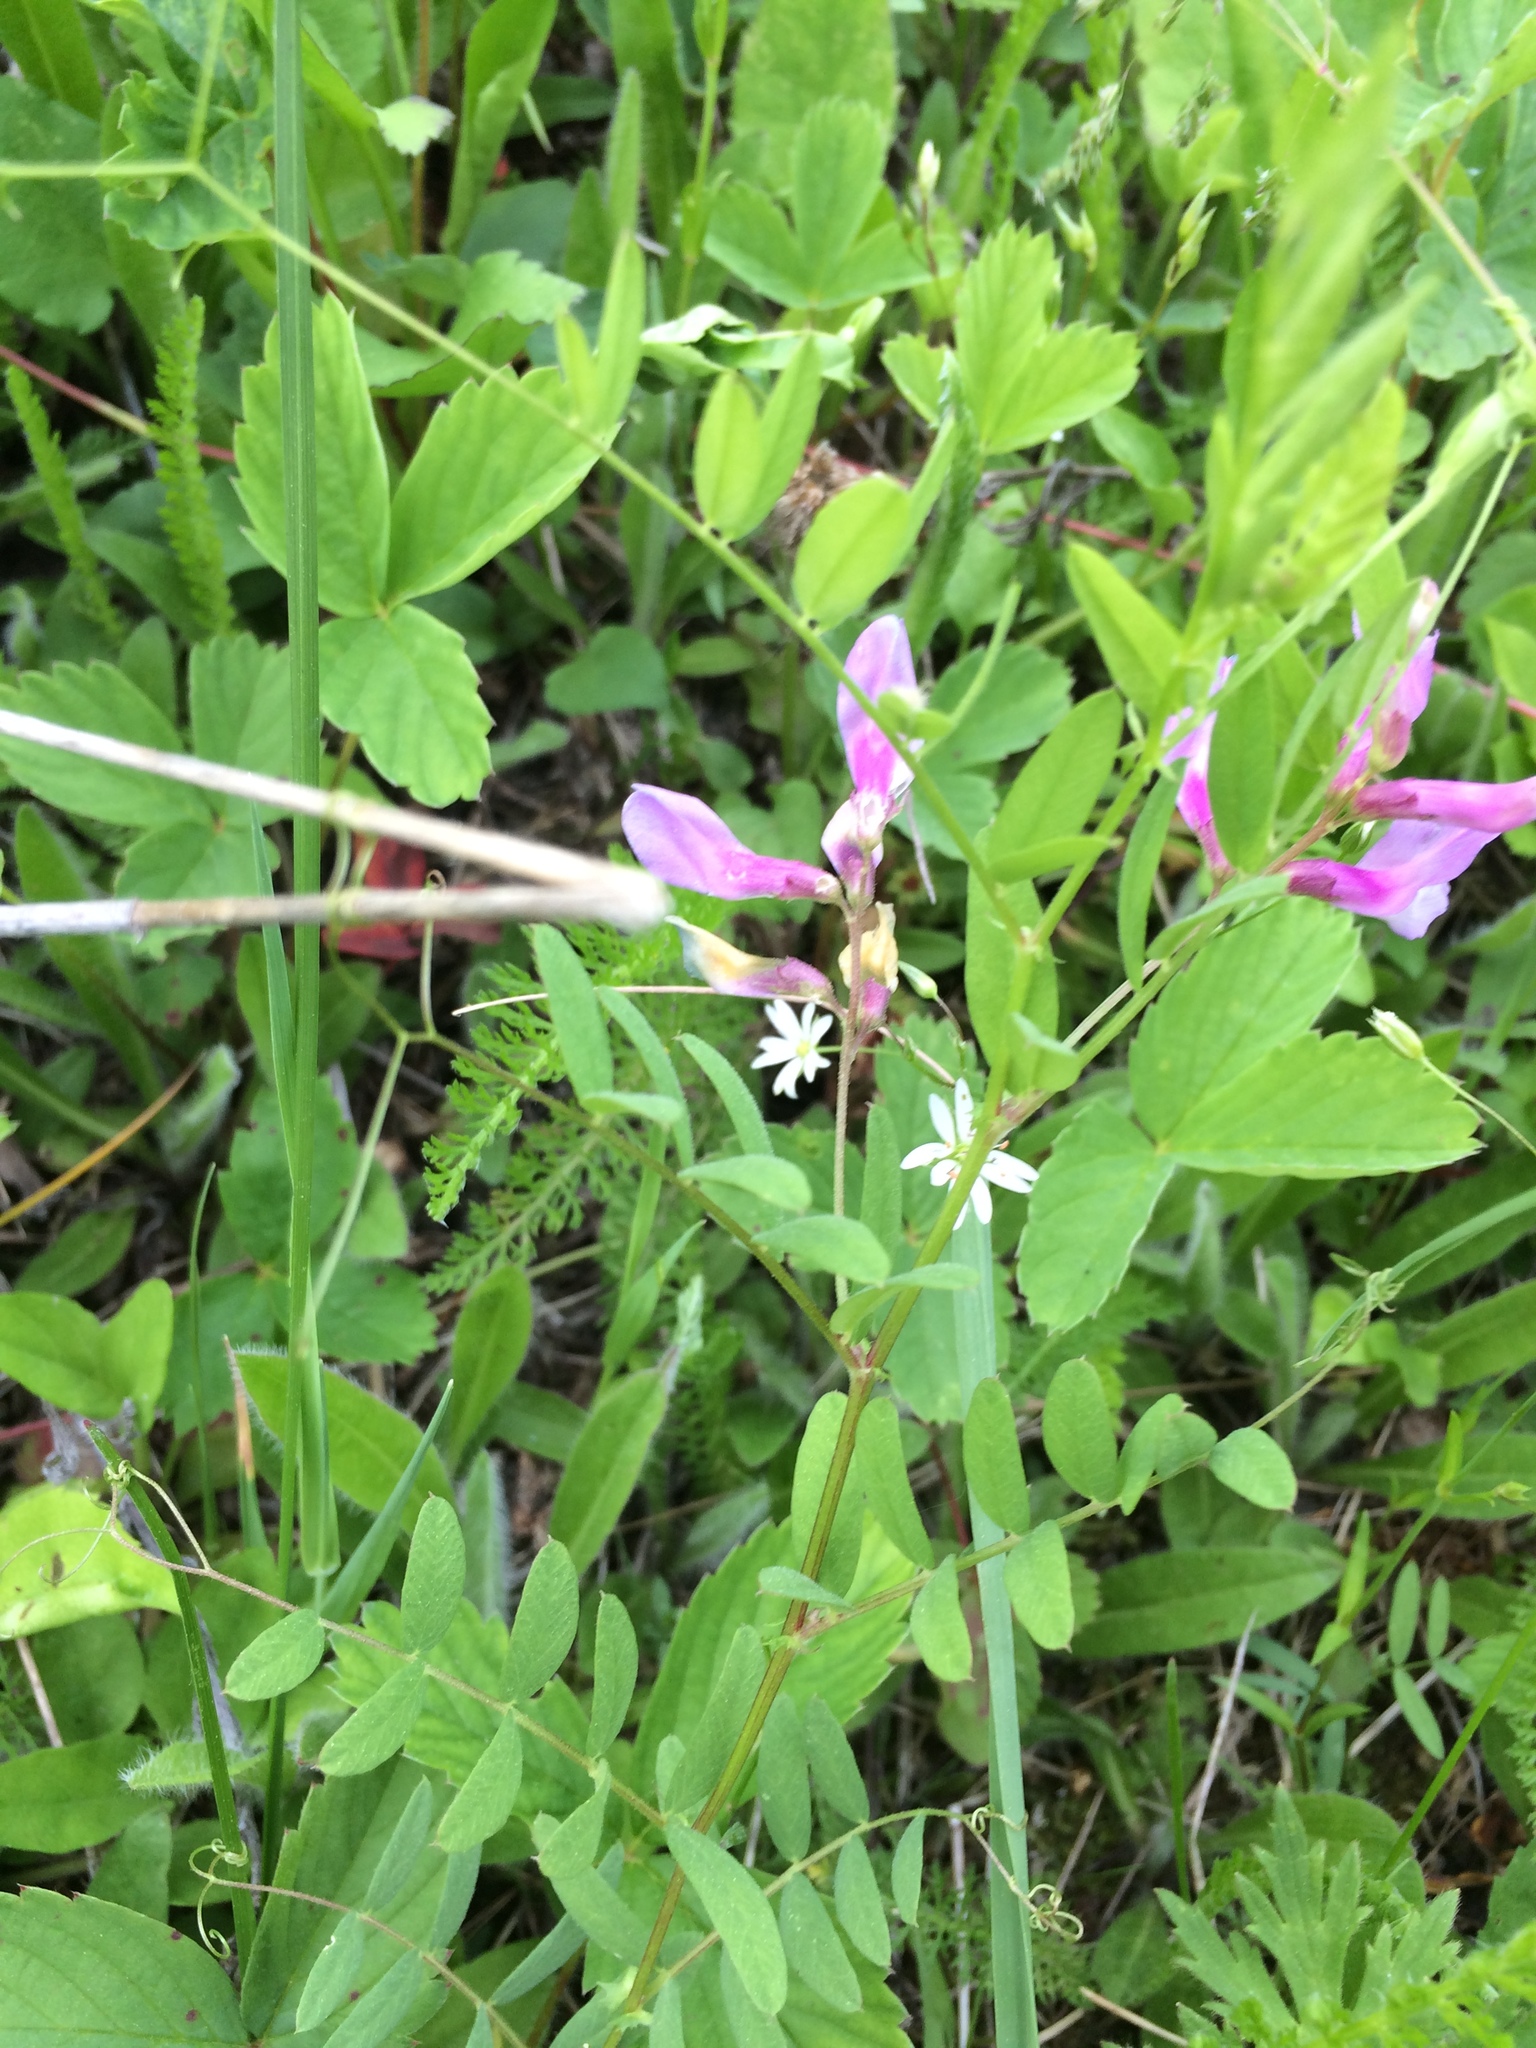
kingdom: Plantae
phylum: Tracheophyta
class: Magnoliopsida
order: Fabales
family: Fabaceae
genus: Vicia
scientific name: Vicia americana
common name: American vetch
